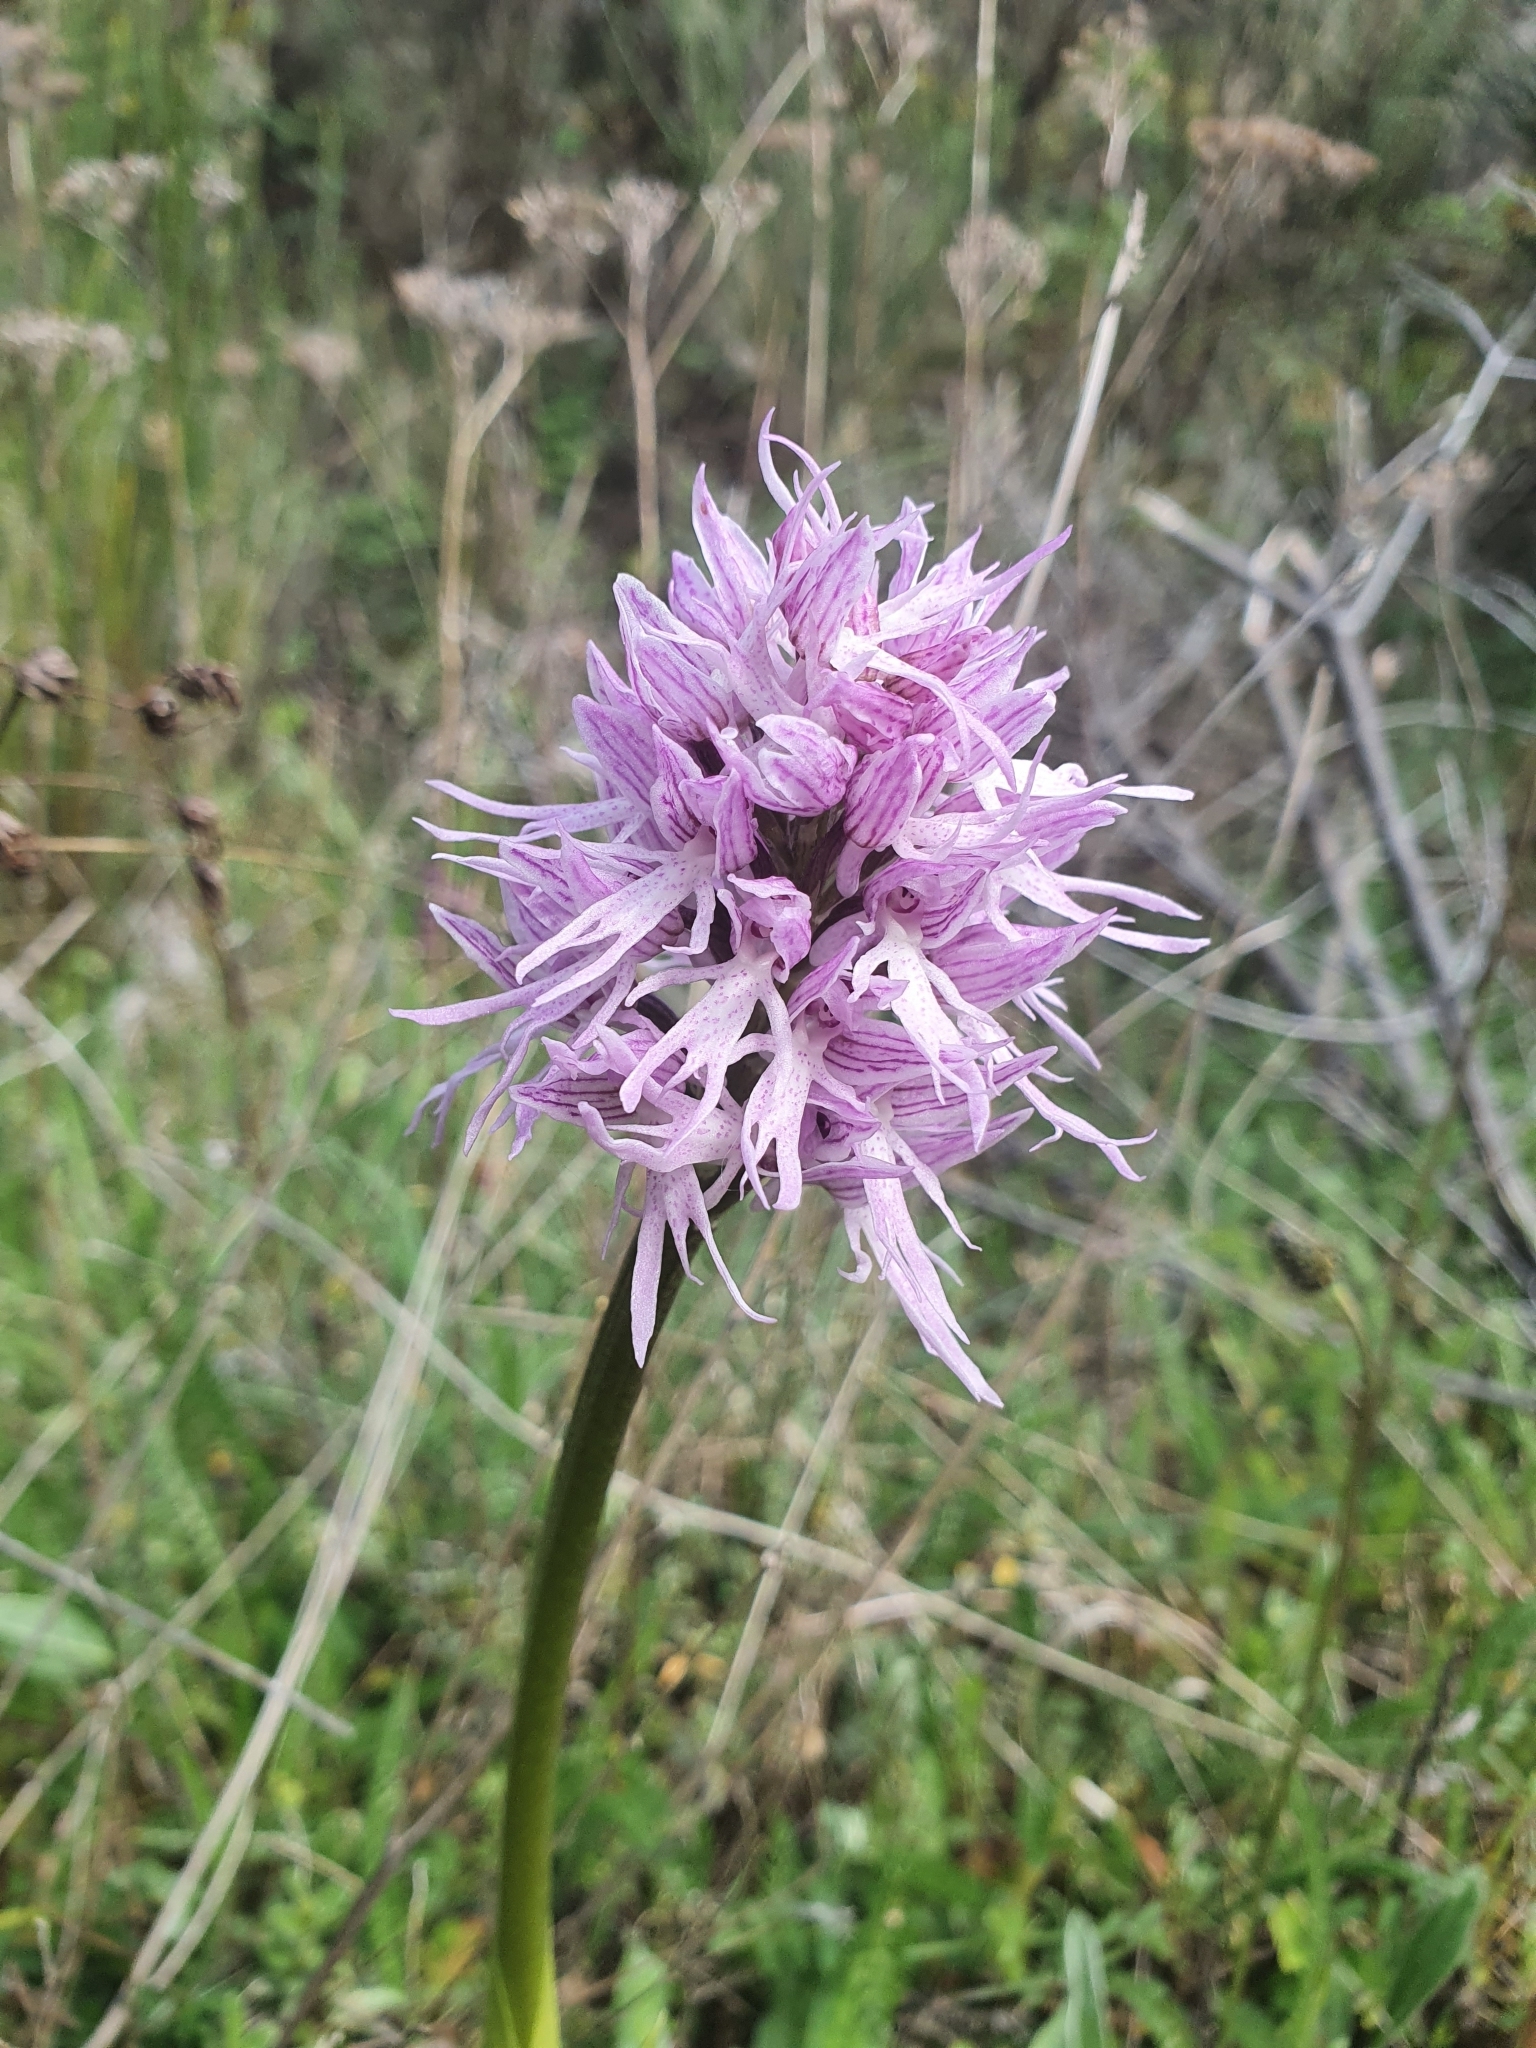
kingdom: Plantae
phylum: Tracheophyta
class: Liliopsida
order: Asparagales
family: Orchidaceae
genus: Orchis
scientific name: Orchis italica
